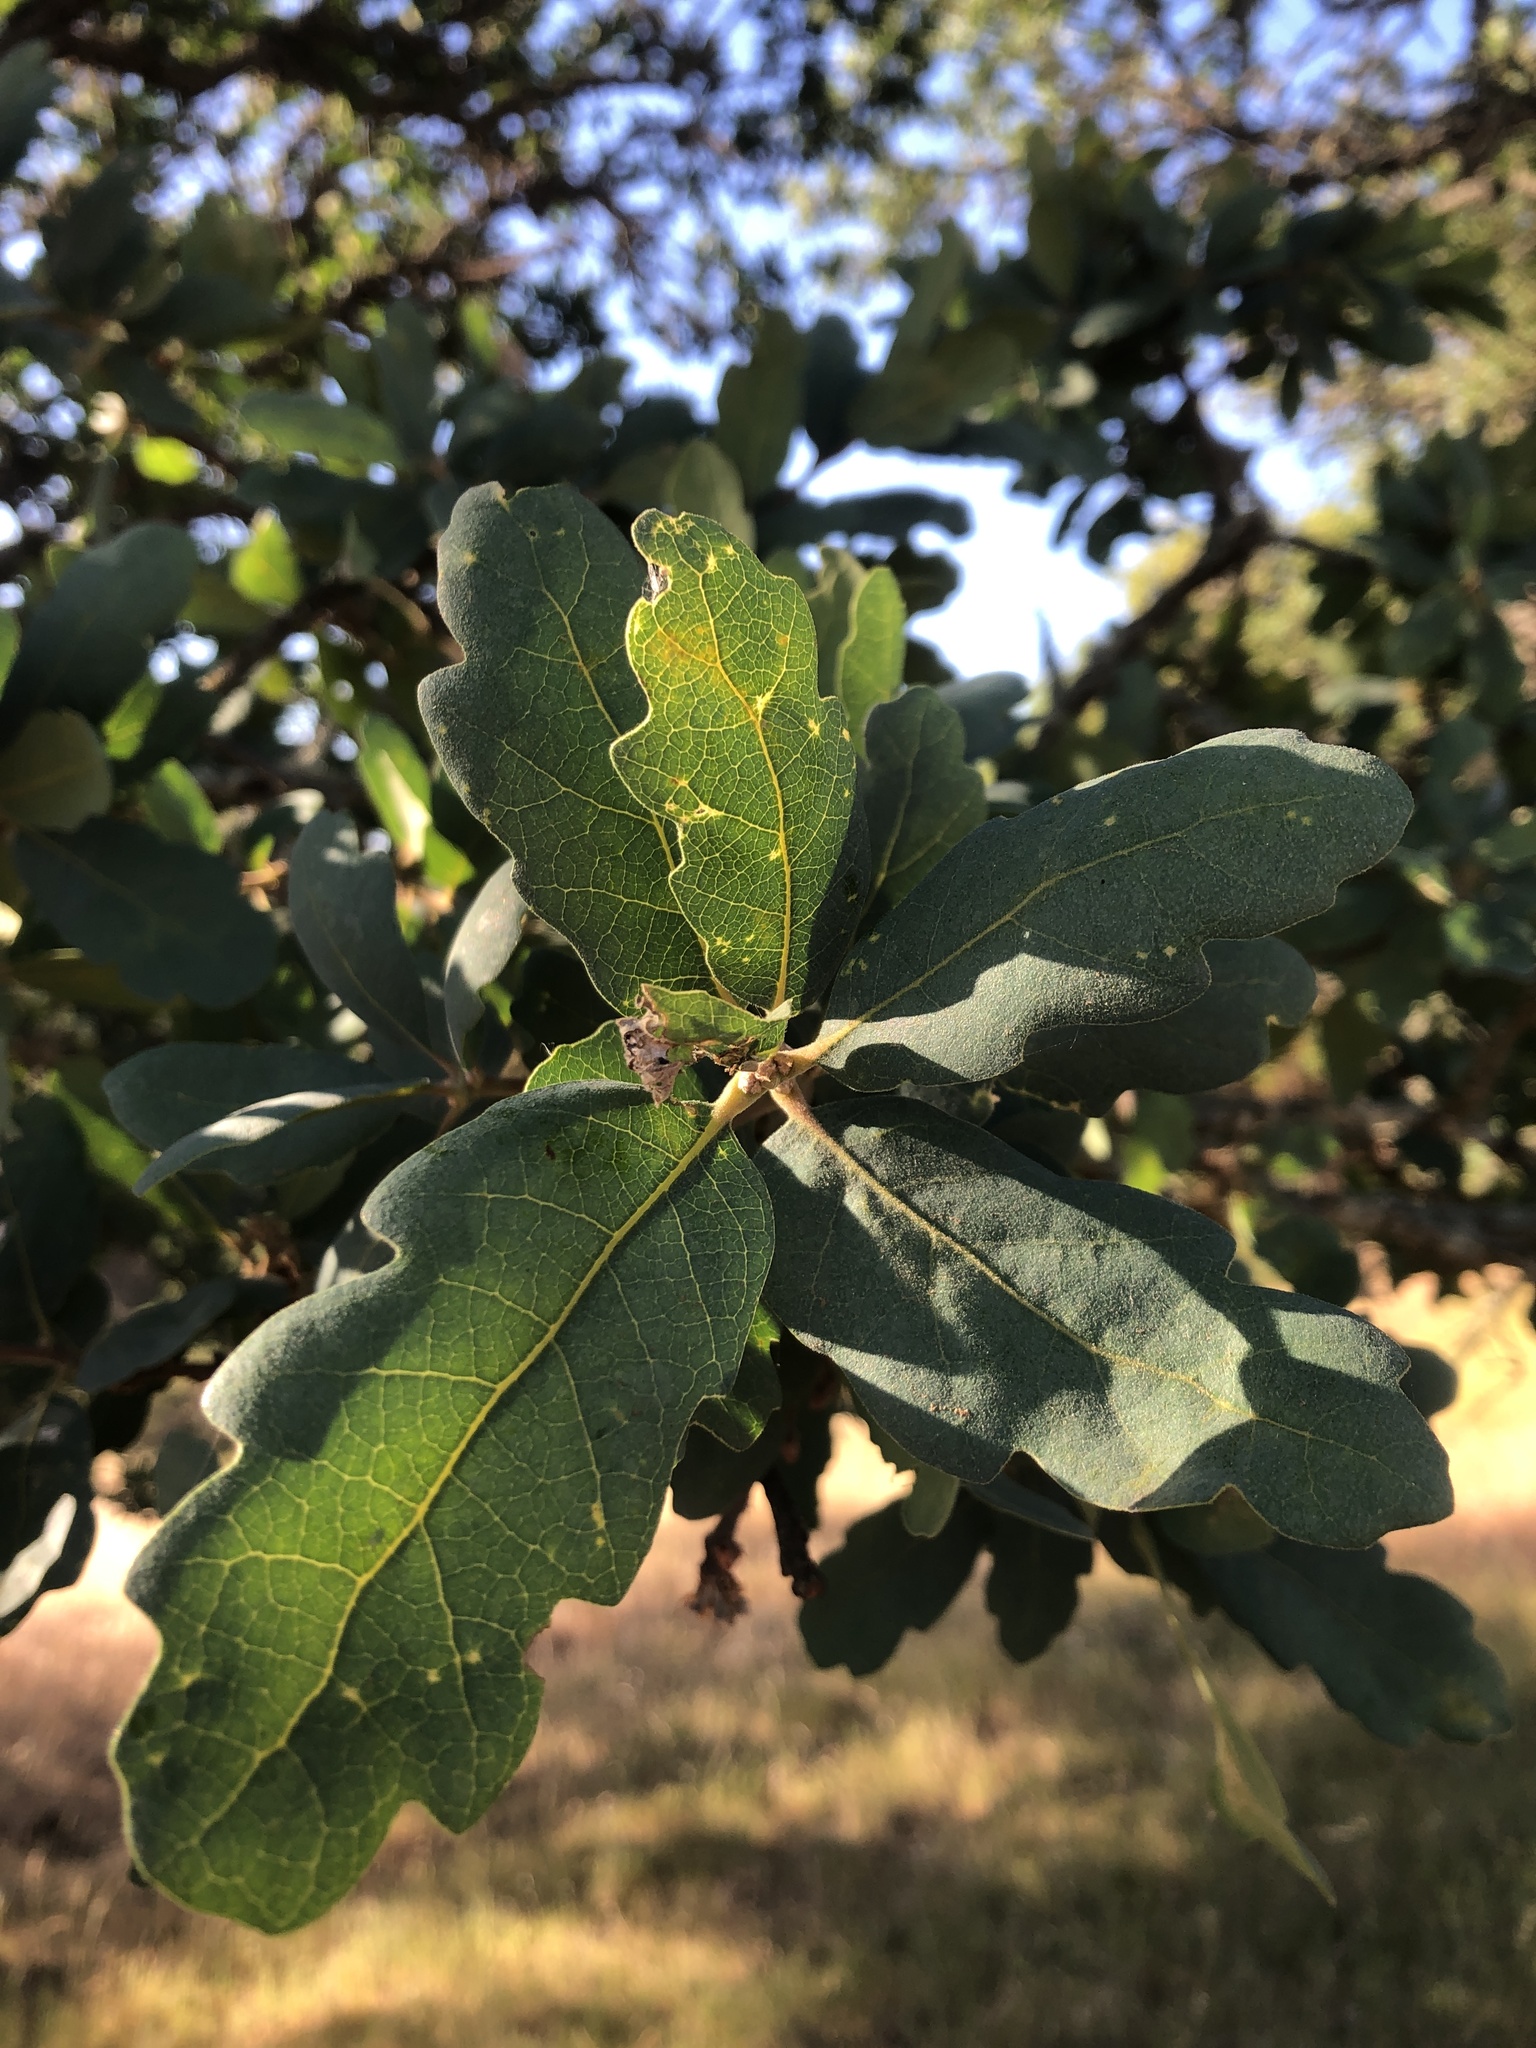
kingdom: Plantae
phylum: Tracheophyta
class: Magnoliopsida
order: Fagales
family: Fagaceae
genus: Quercus
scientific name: Quercus douglasii
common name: Blue oak
